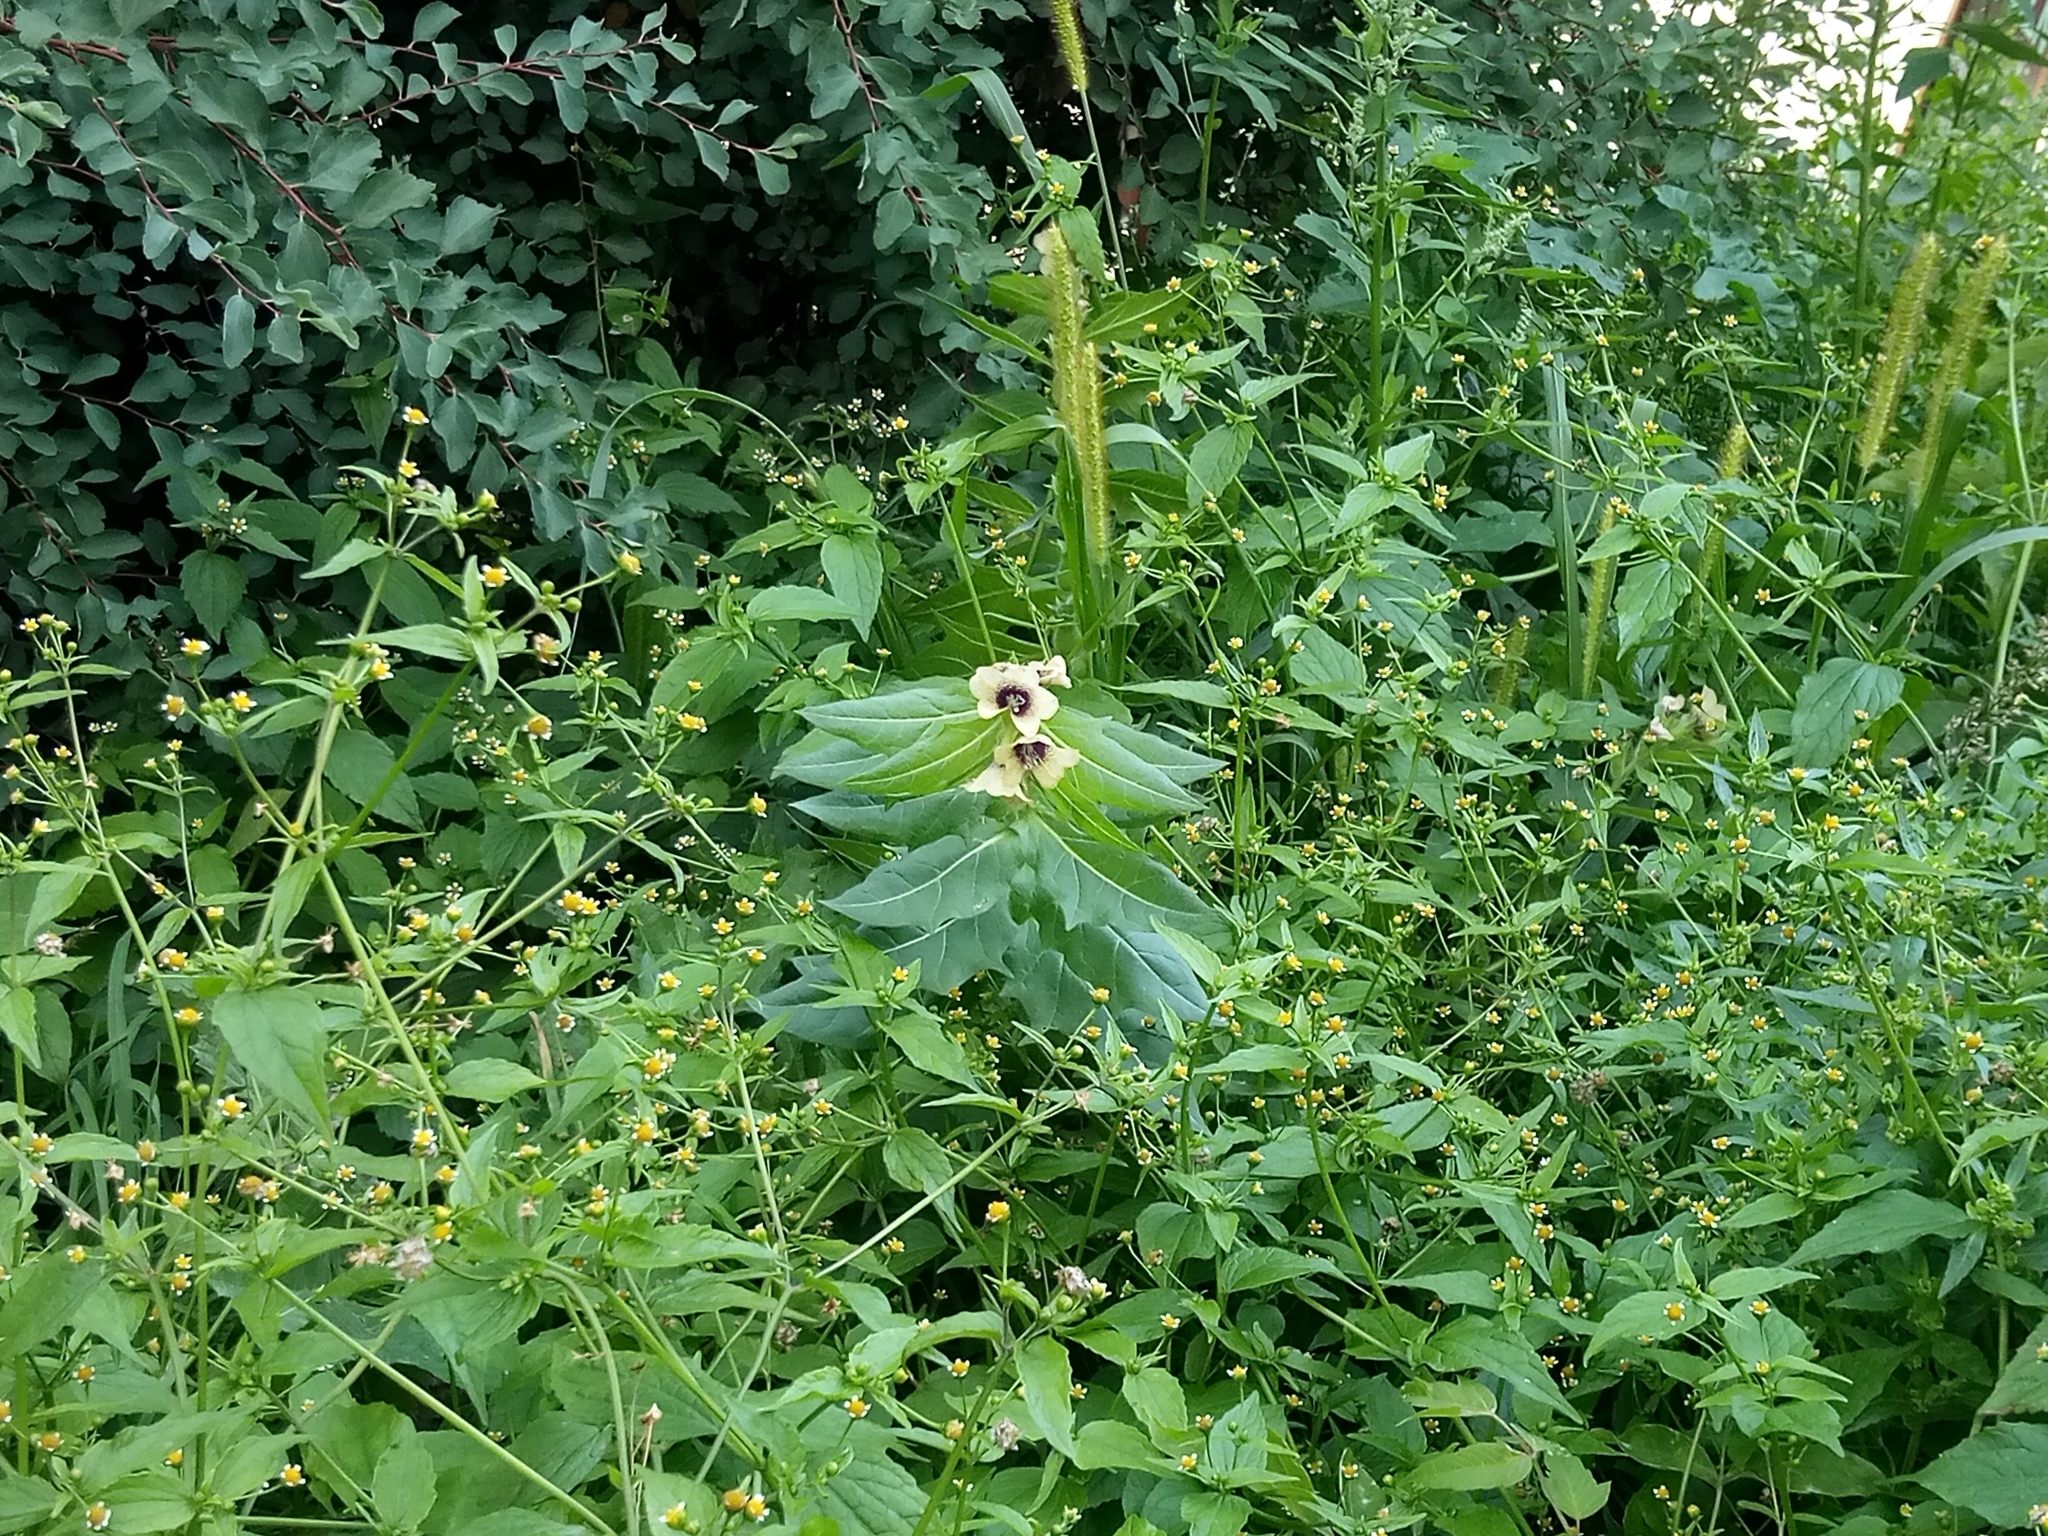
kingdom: Plantae
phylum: Tracheophyta
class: Magnoliopsida
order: Solanales
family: Solanaceae
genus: Hyoscyamus
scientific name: Hyoscyamus niger
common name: Henbane
